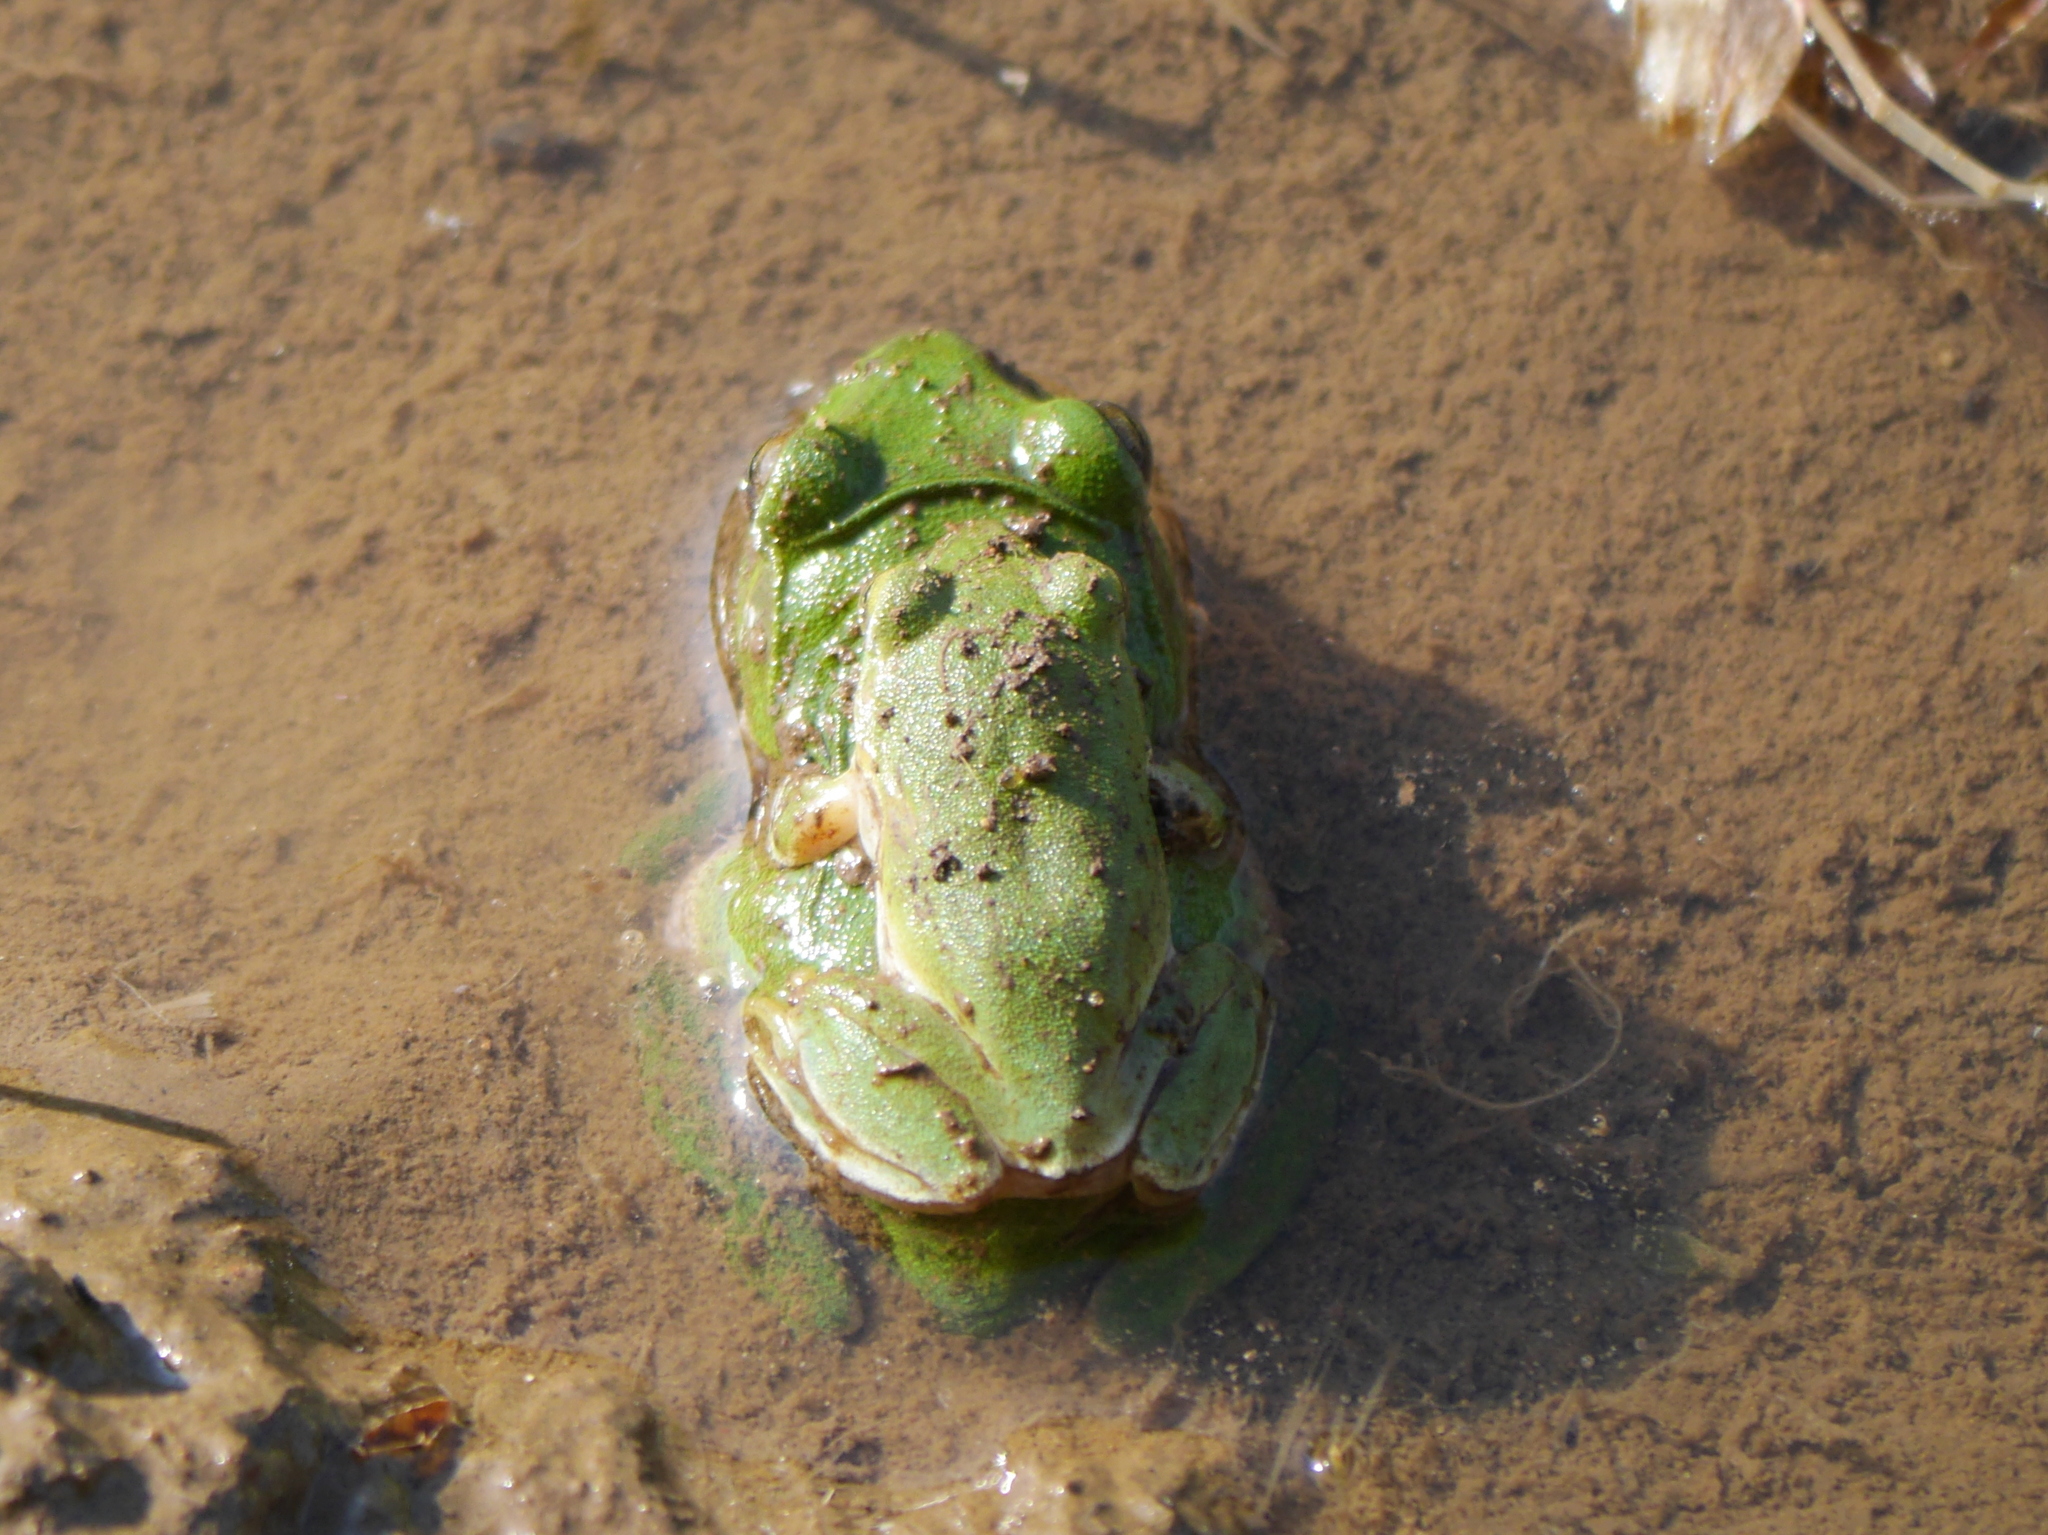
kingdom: Animalia
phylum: Chordata
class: Amphibia
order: Anura
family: Rhacophoridae
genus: Zhangixalus
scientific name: Zhangixalus schlegelii
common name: Japanese gliding frog
